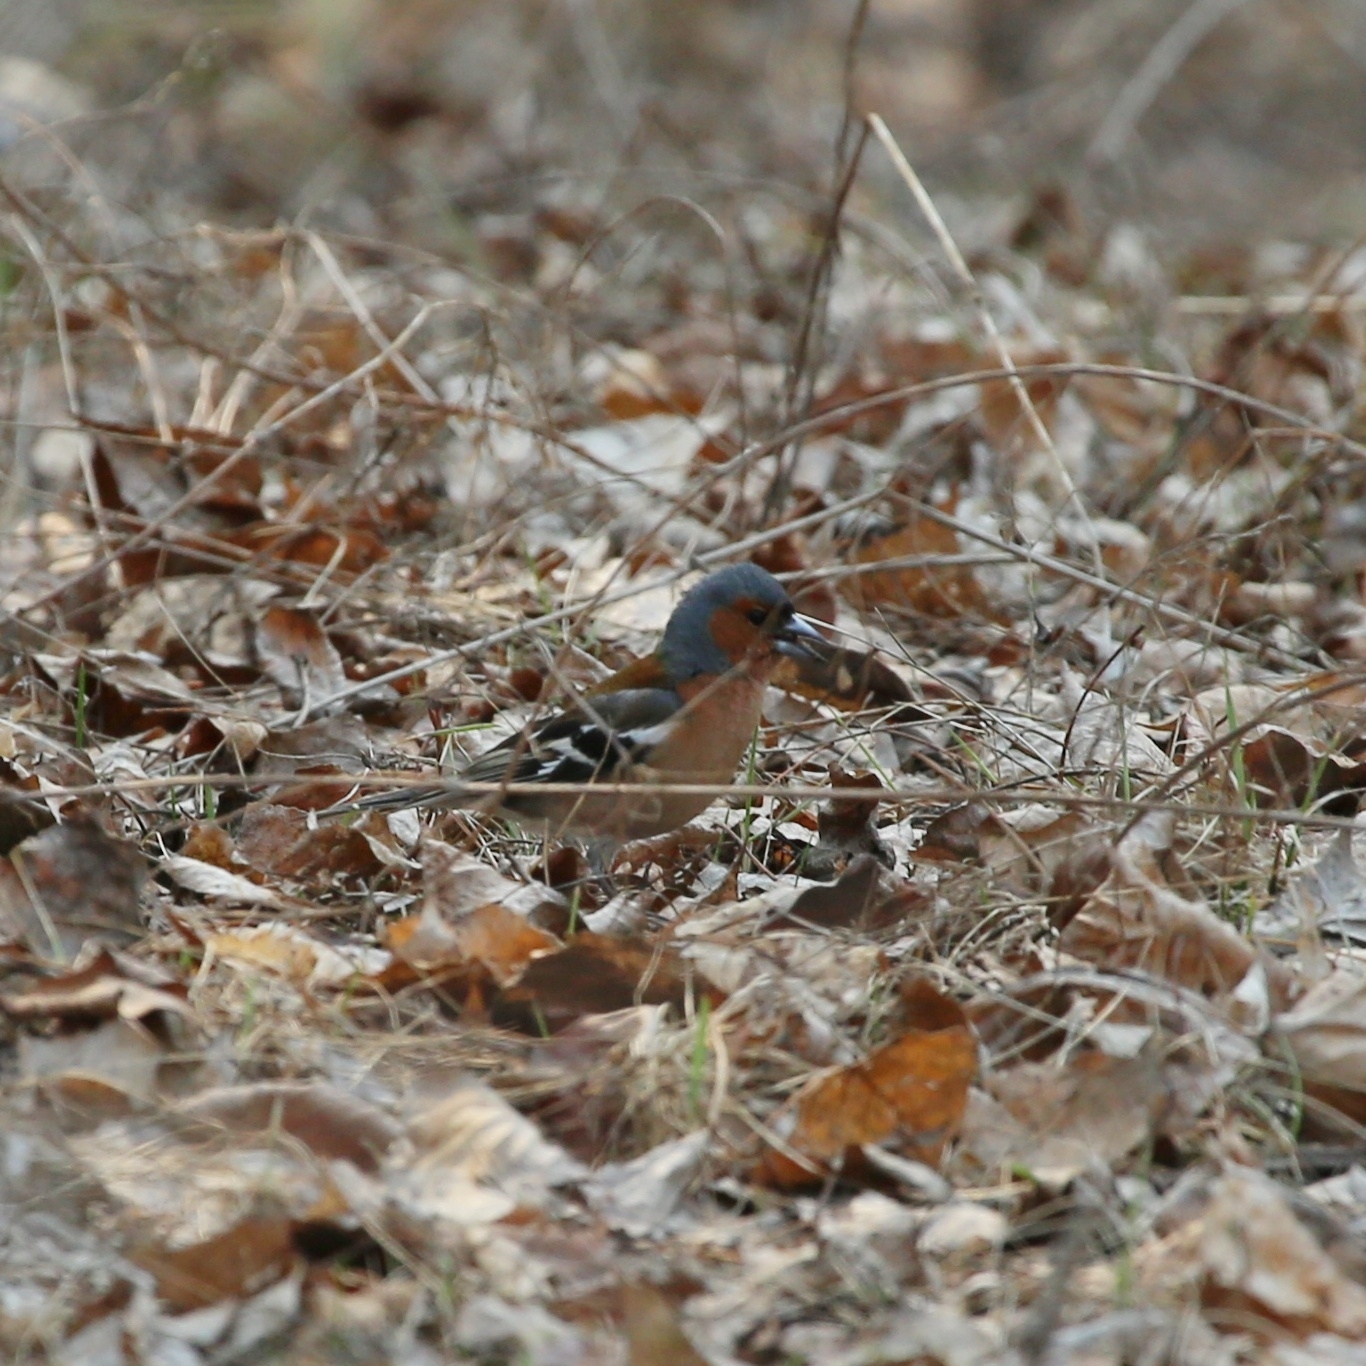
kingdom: Animalia
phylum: Chordata
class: Aves
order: Passeriformes
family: Fringillidae
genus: Fringilla
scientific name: Fringilla coelebs
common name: Common chaffinch
